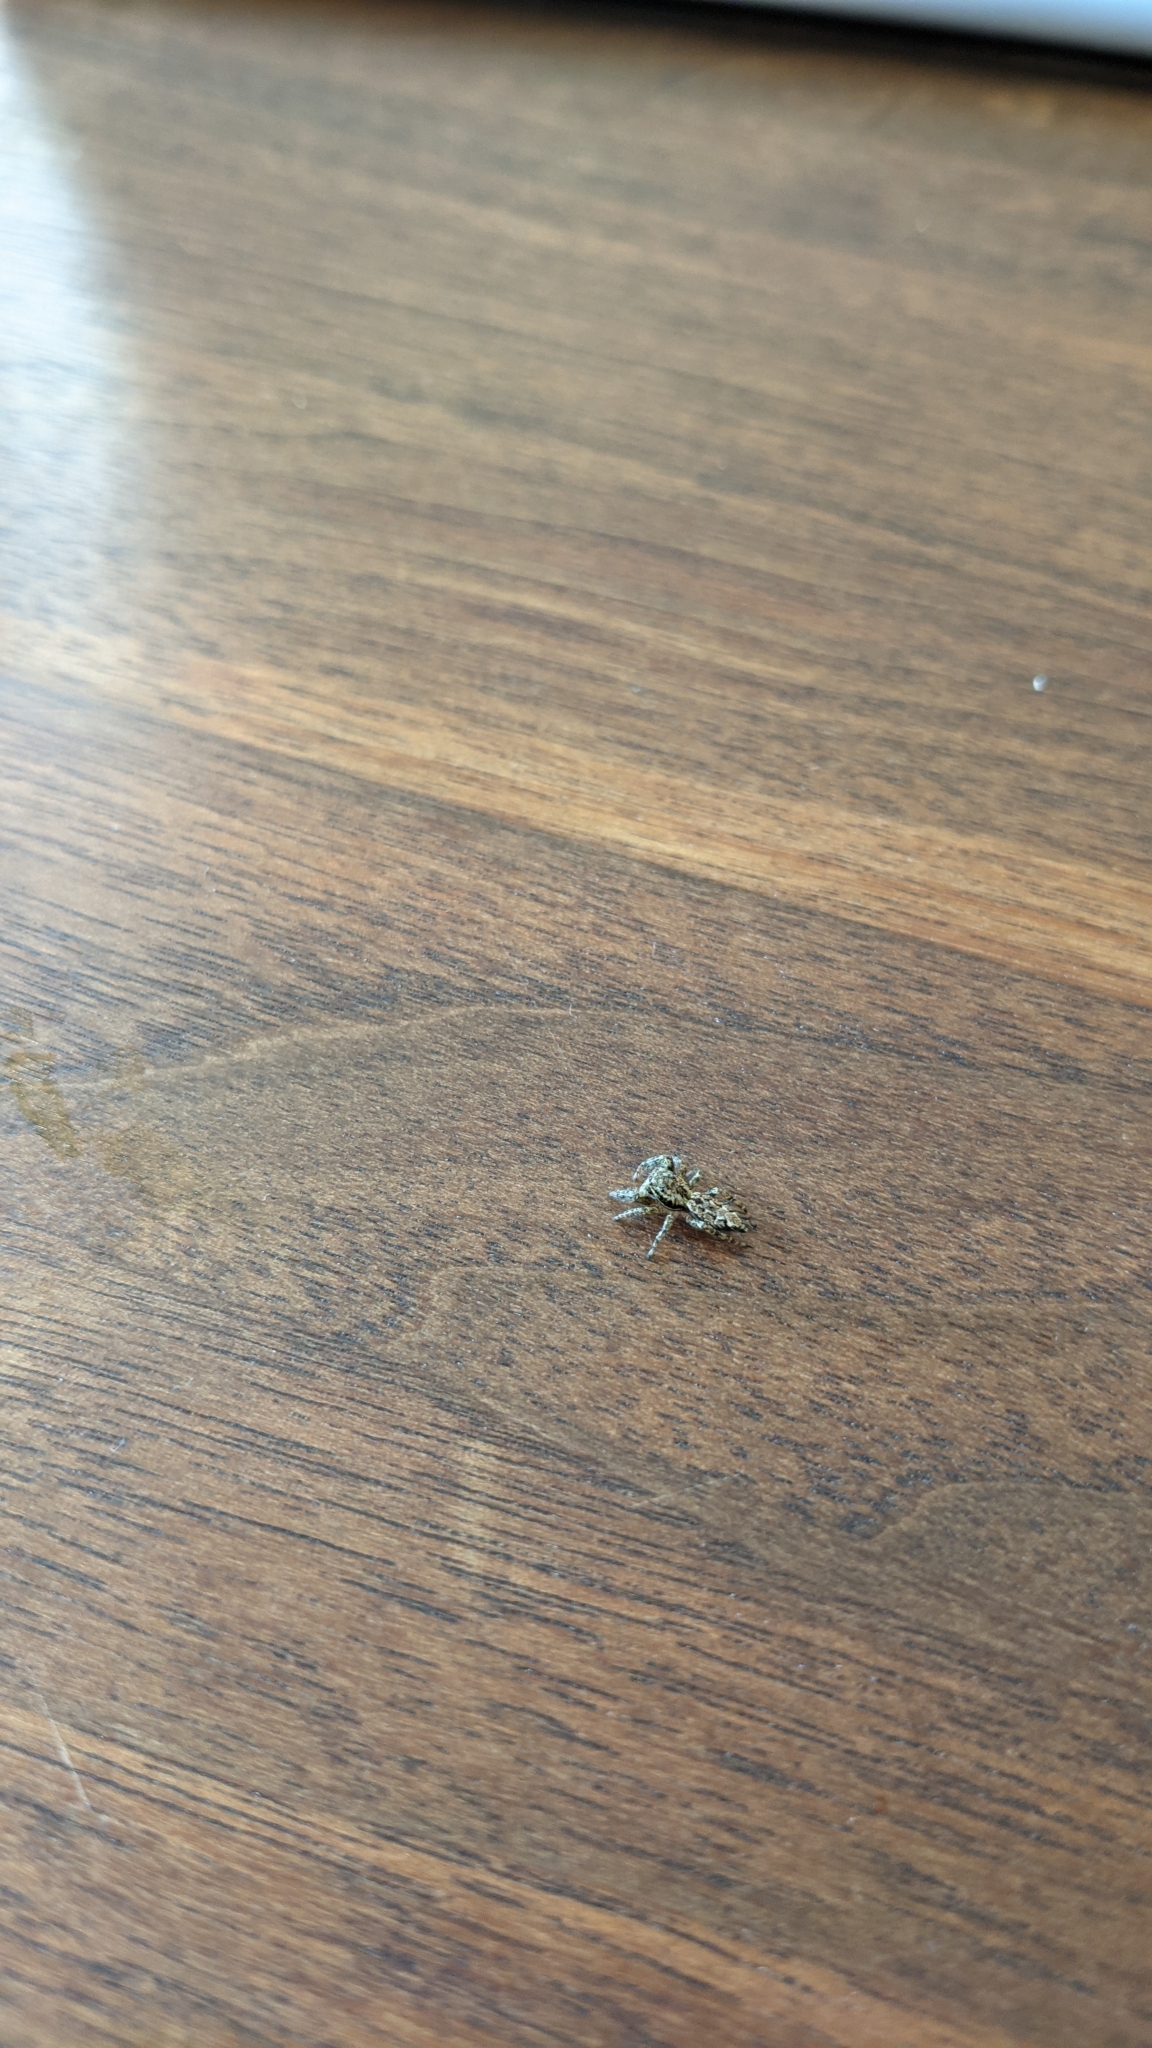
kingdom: Animalia
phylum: Arthropoda
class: Arachnida
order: Araneae
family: Salticidae
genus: Marpissa
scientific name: Marpissa muscosa
